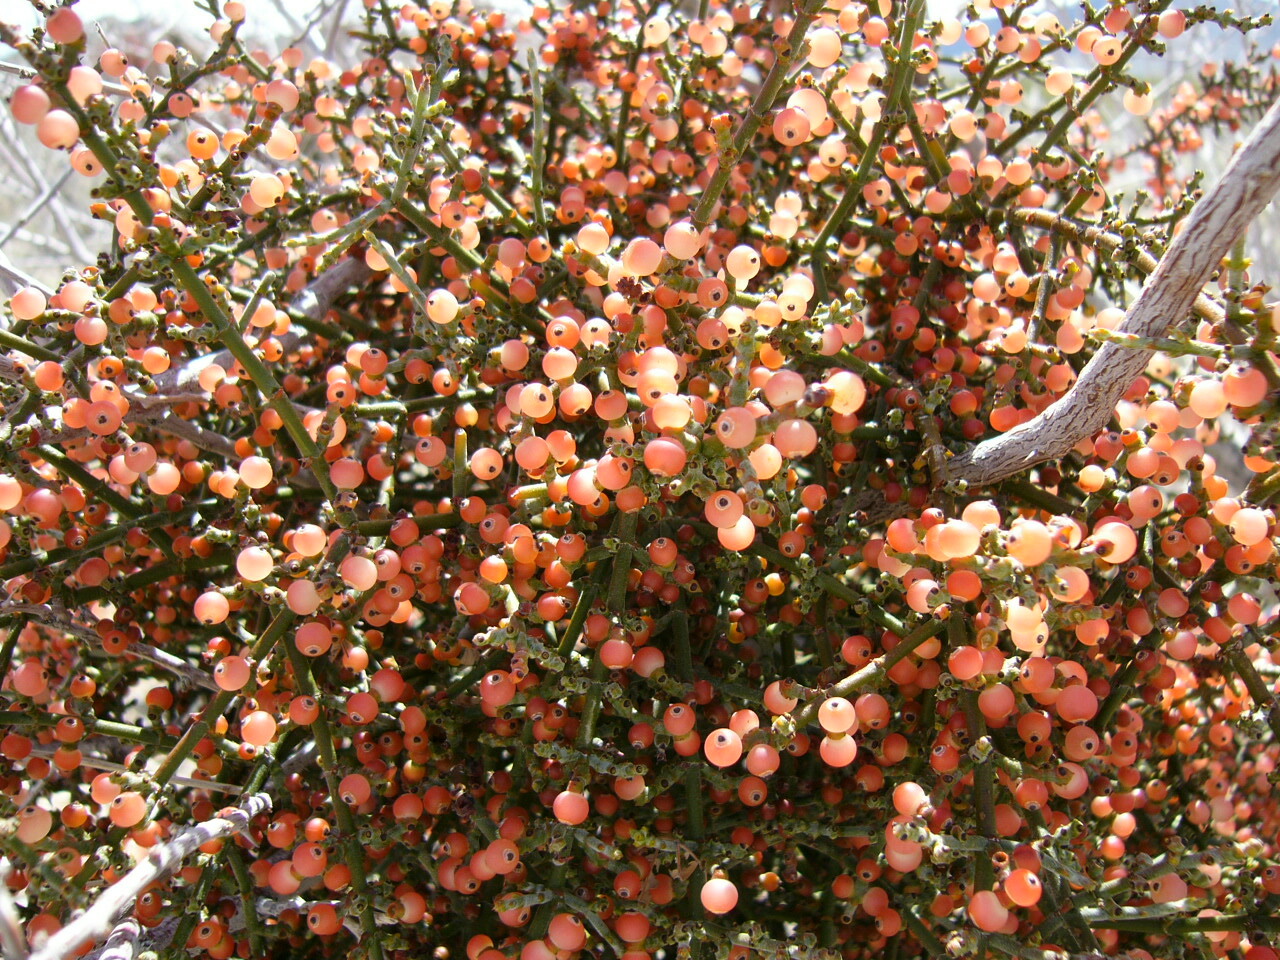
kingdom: Plantae
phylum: Tracheophyta
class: Magnoliopsida
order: Santalales
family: Viscaceae
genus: Phoradendron
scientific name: Phoradendron californicum
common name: Acacia mistletoe
